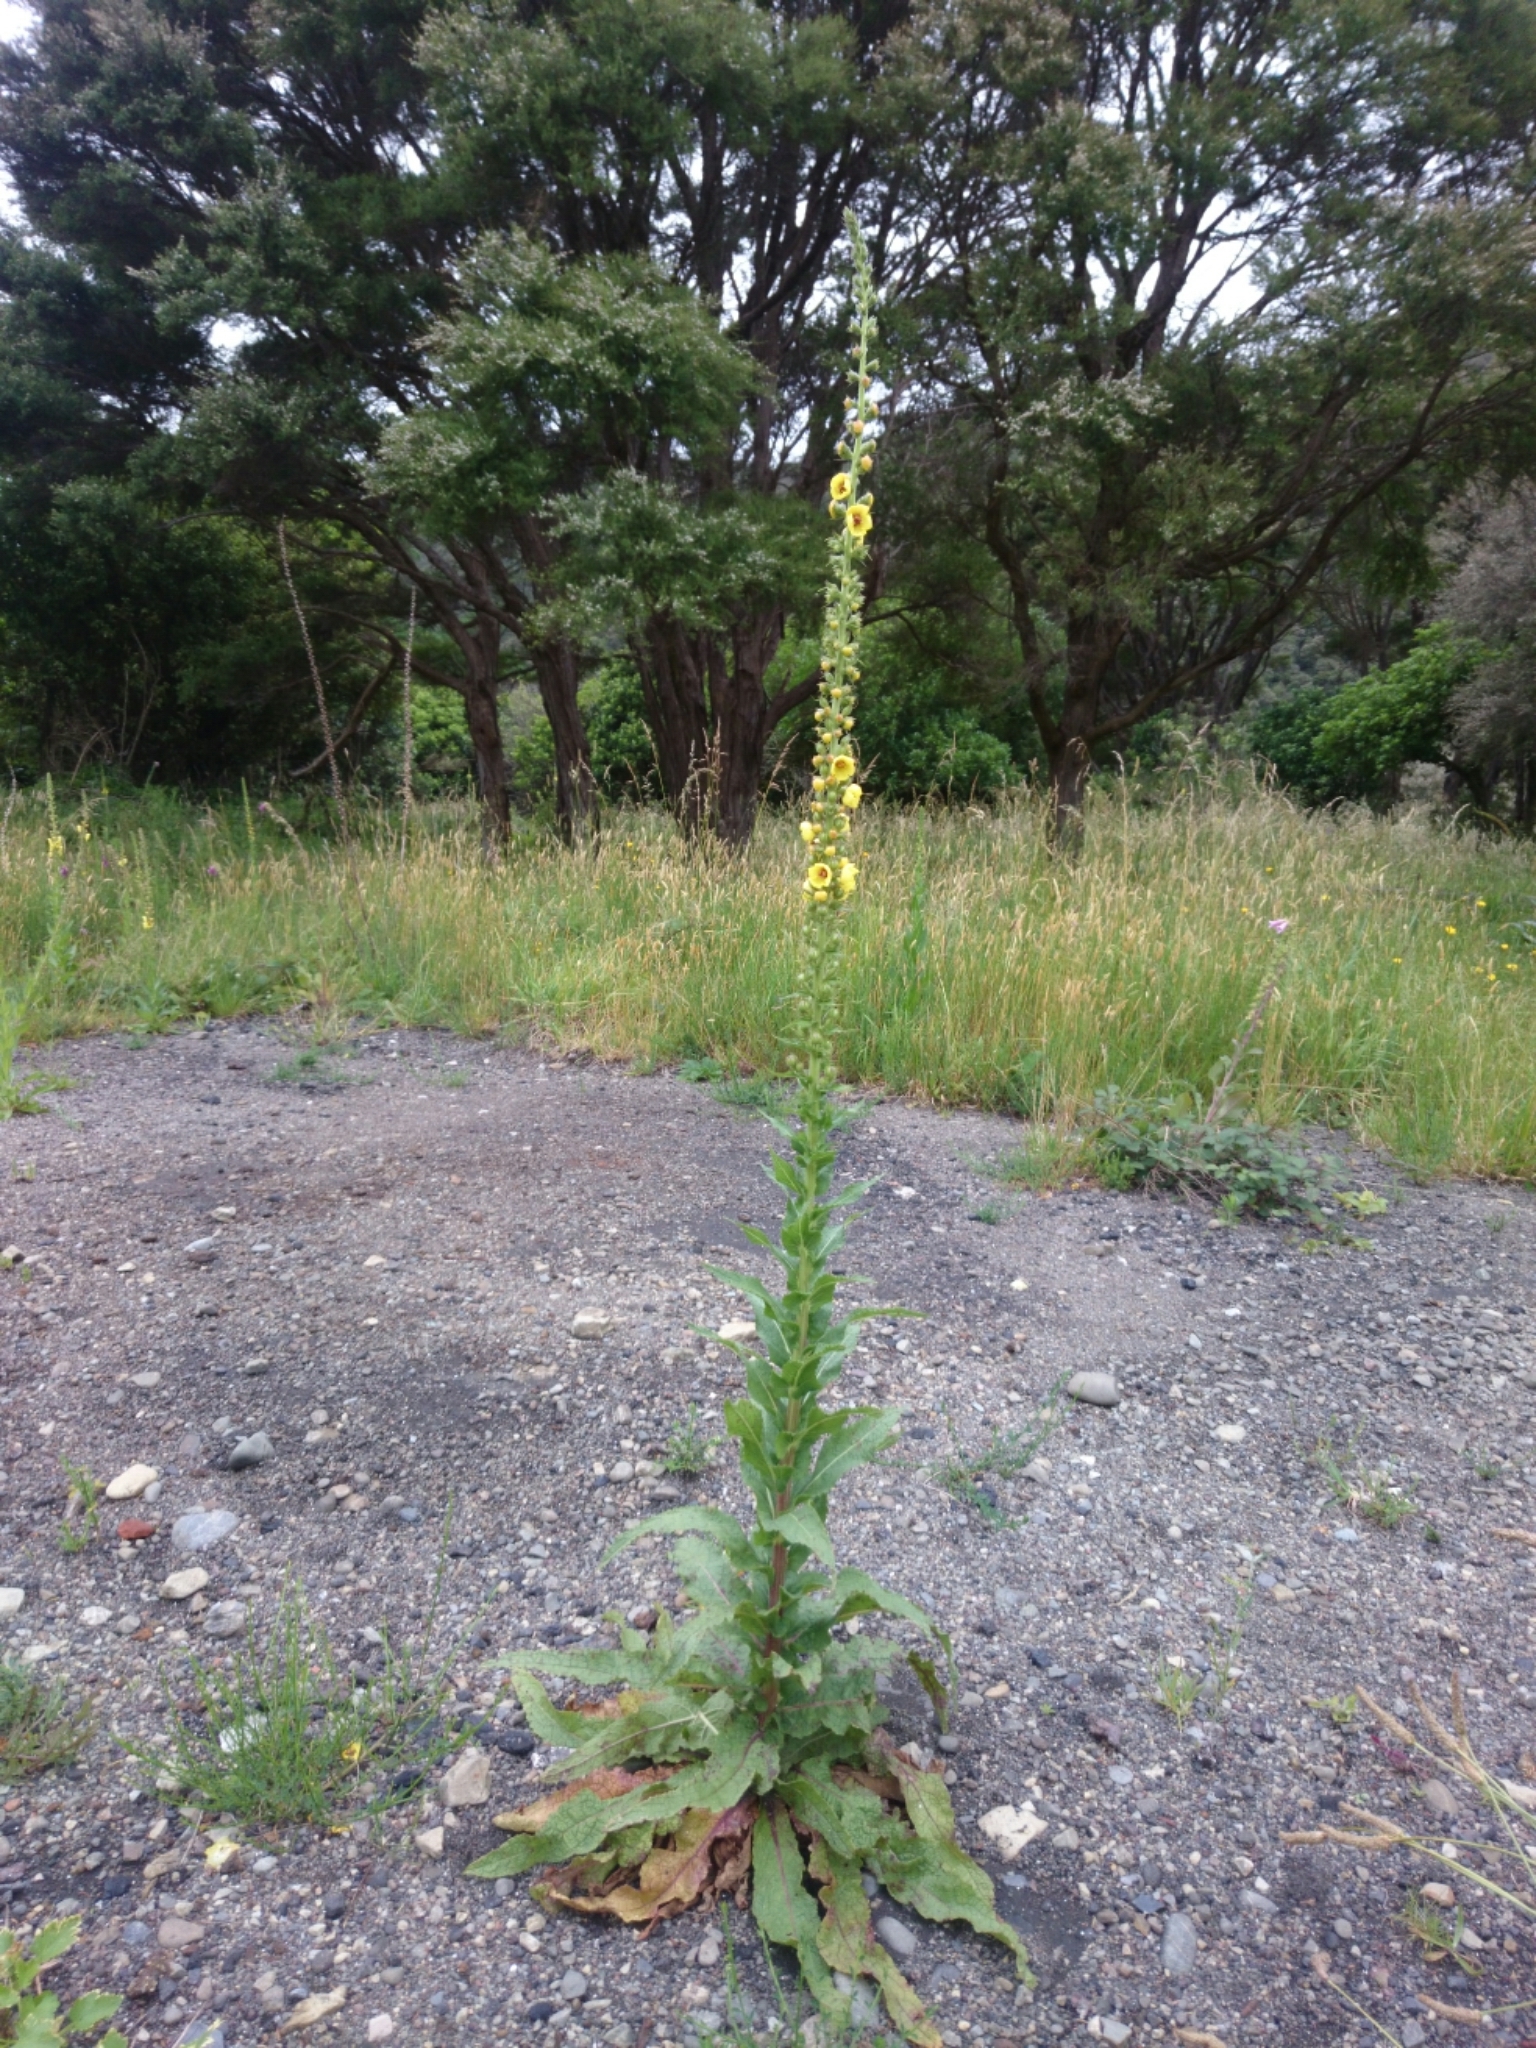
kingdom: Plantae
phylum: Tracheophyta
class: Magnoliopsida
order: Lamiales
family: Scrophulariaceae
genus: Verbascum
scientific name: Verbascum virgatum
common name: Twiggy mullein
